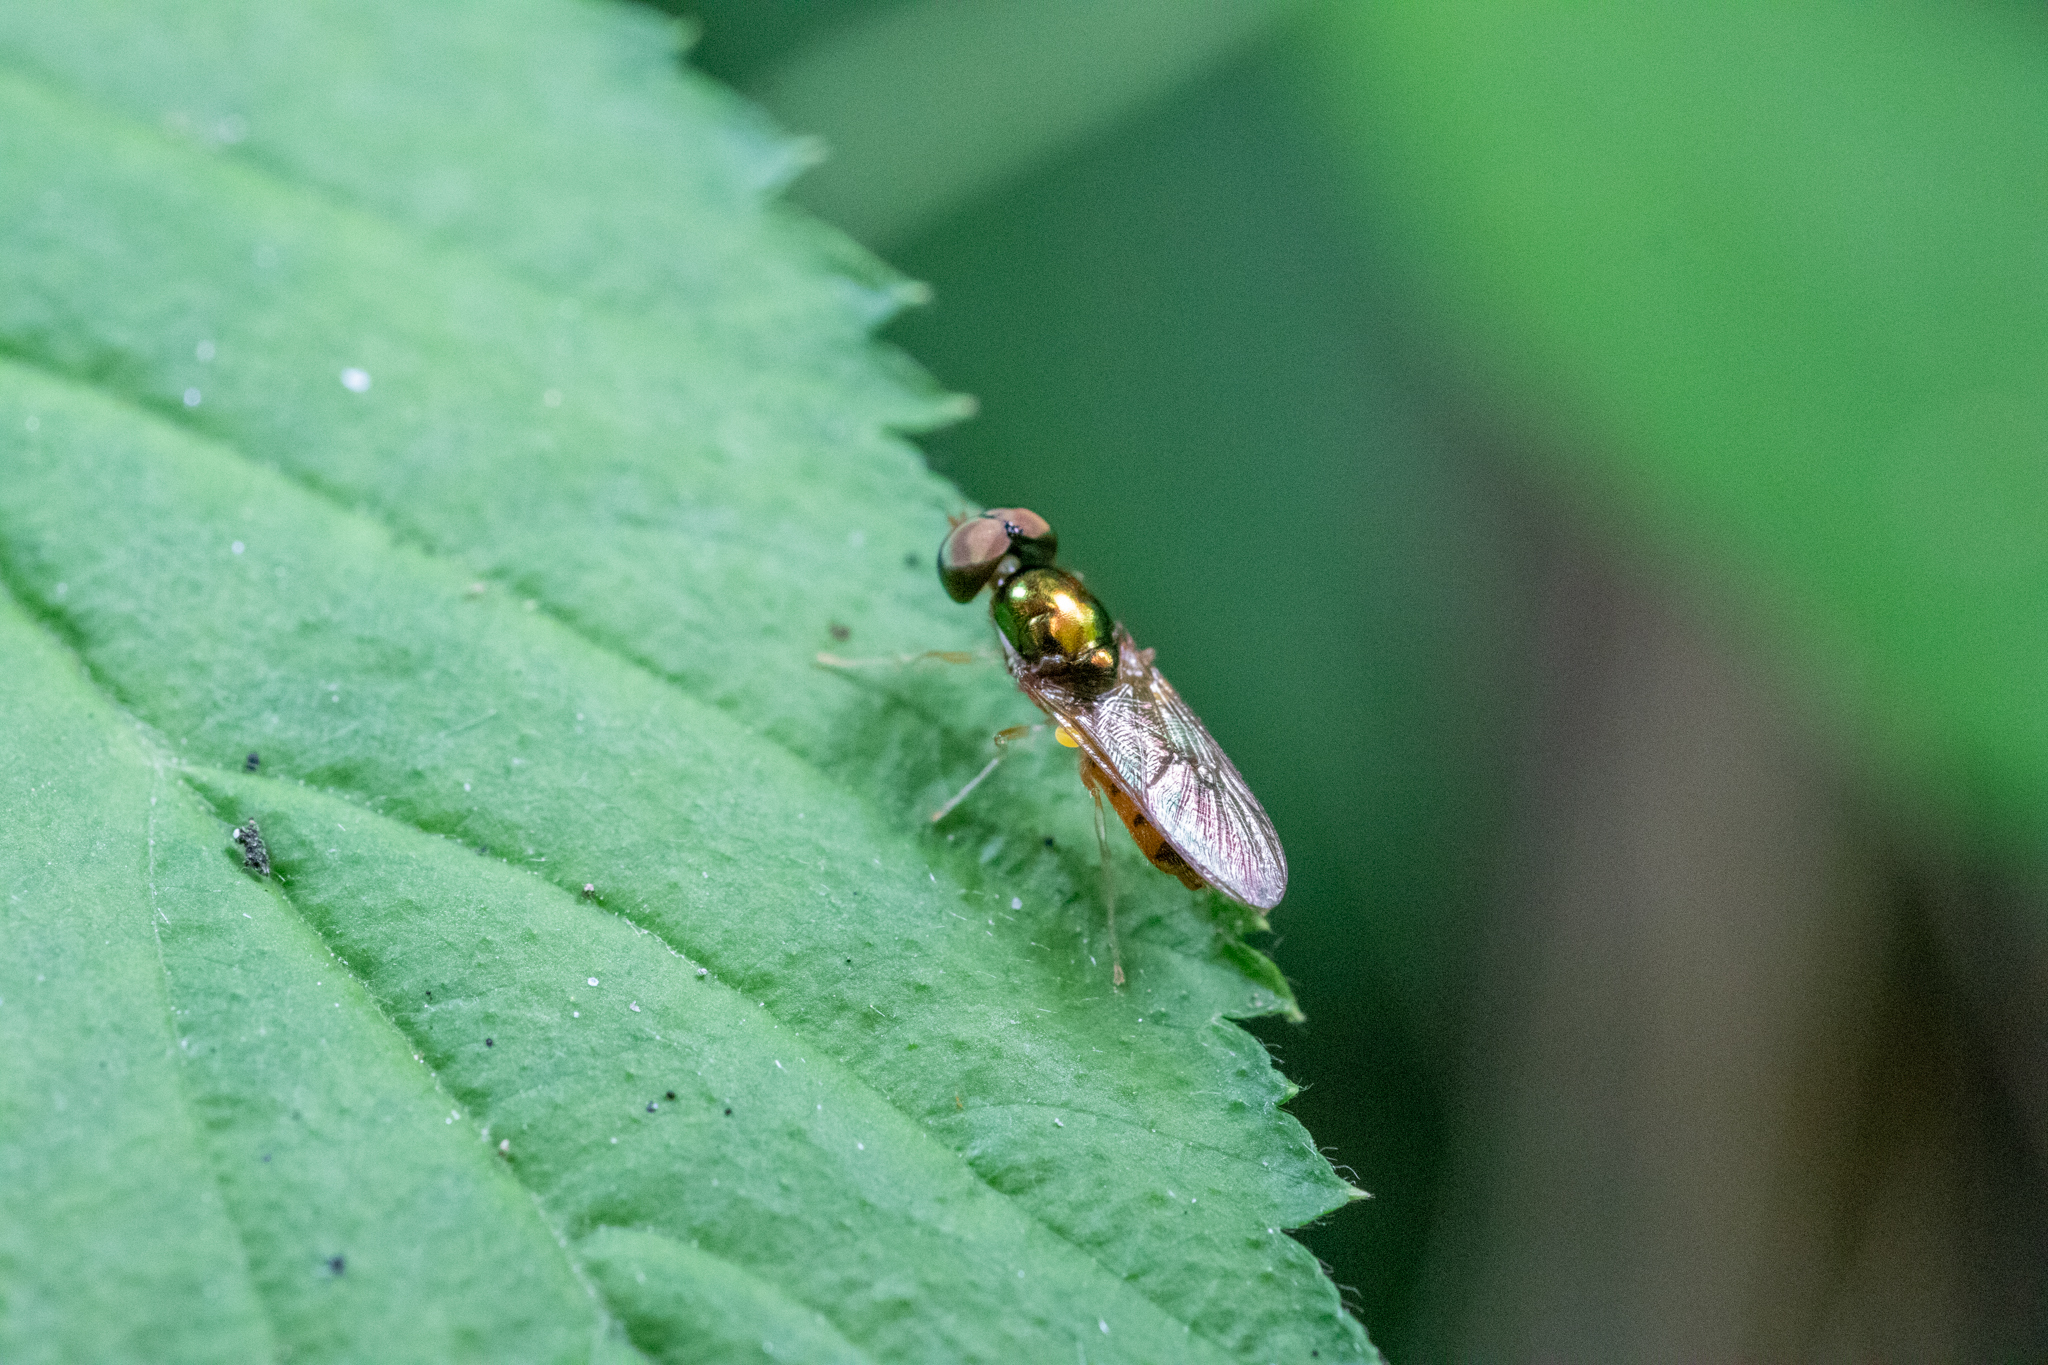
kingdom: Animalia
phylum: Arthropoda
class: Insecta
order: Diptera
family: Stratiomyidae
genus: Cephalochrysa
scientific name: Cephalochrysa canadensis
